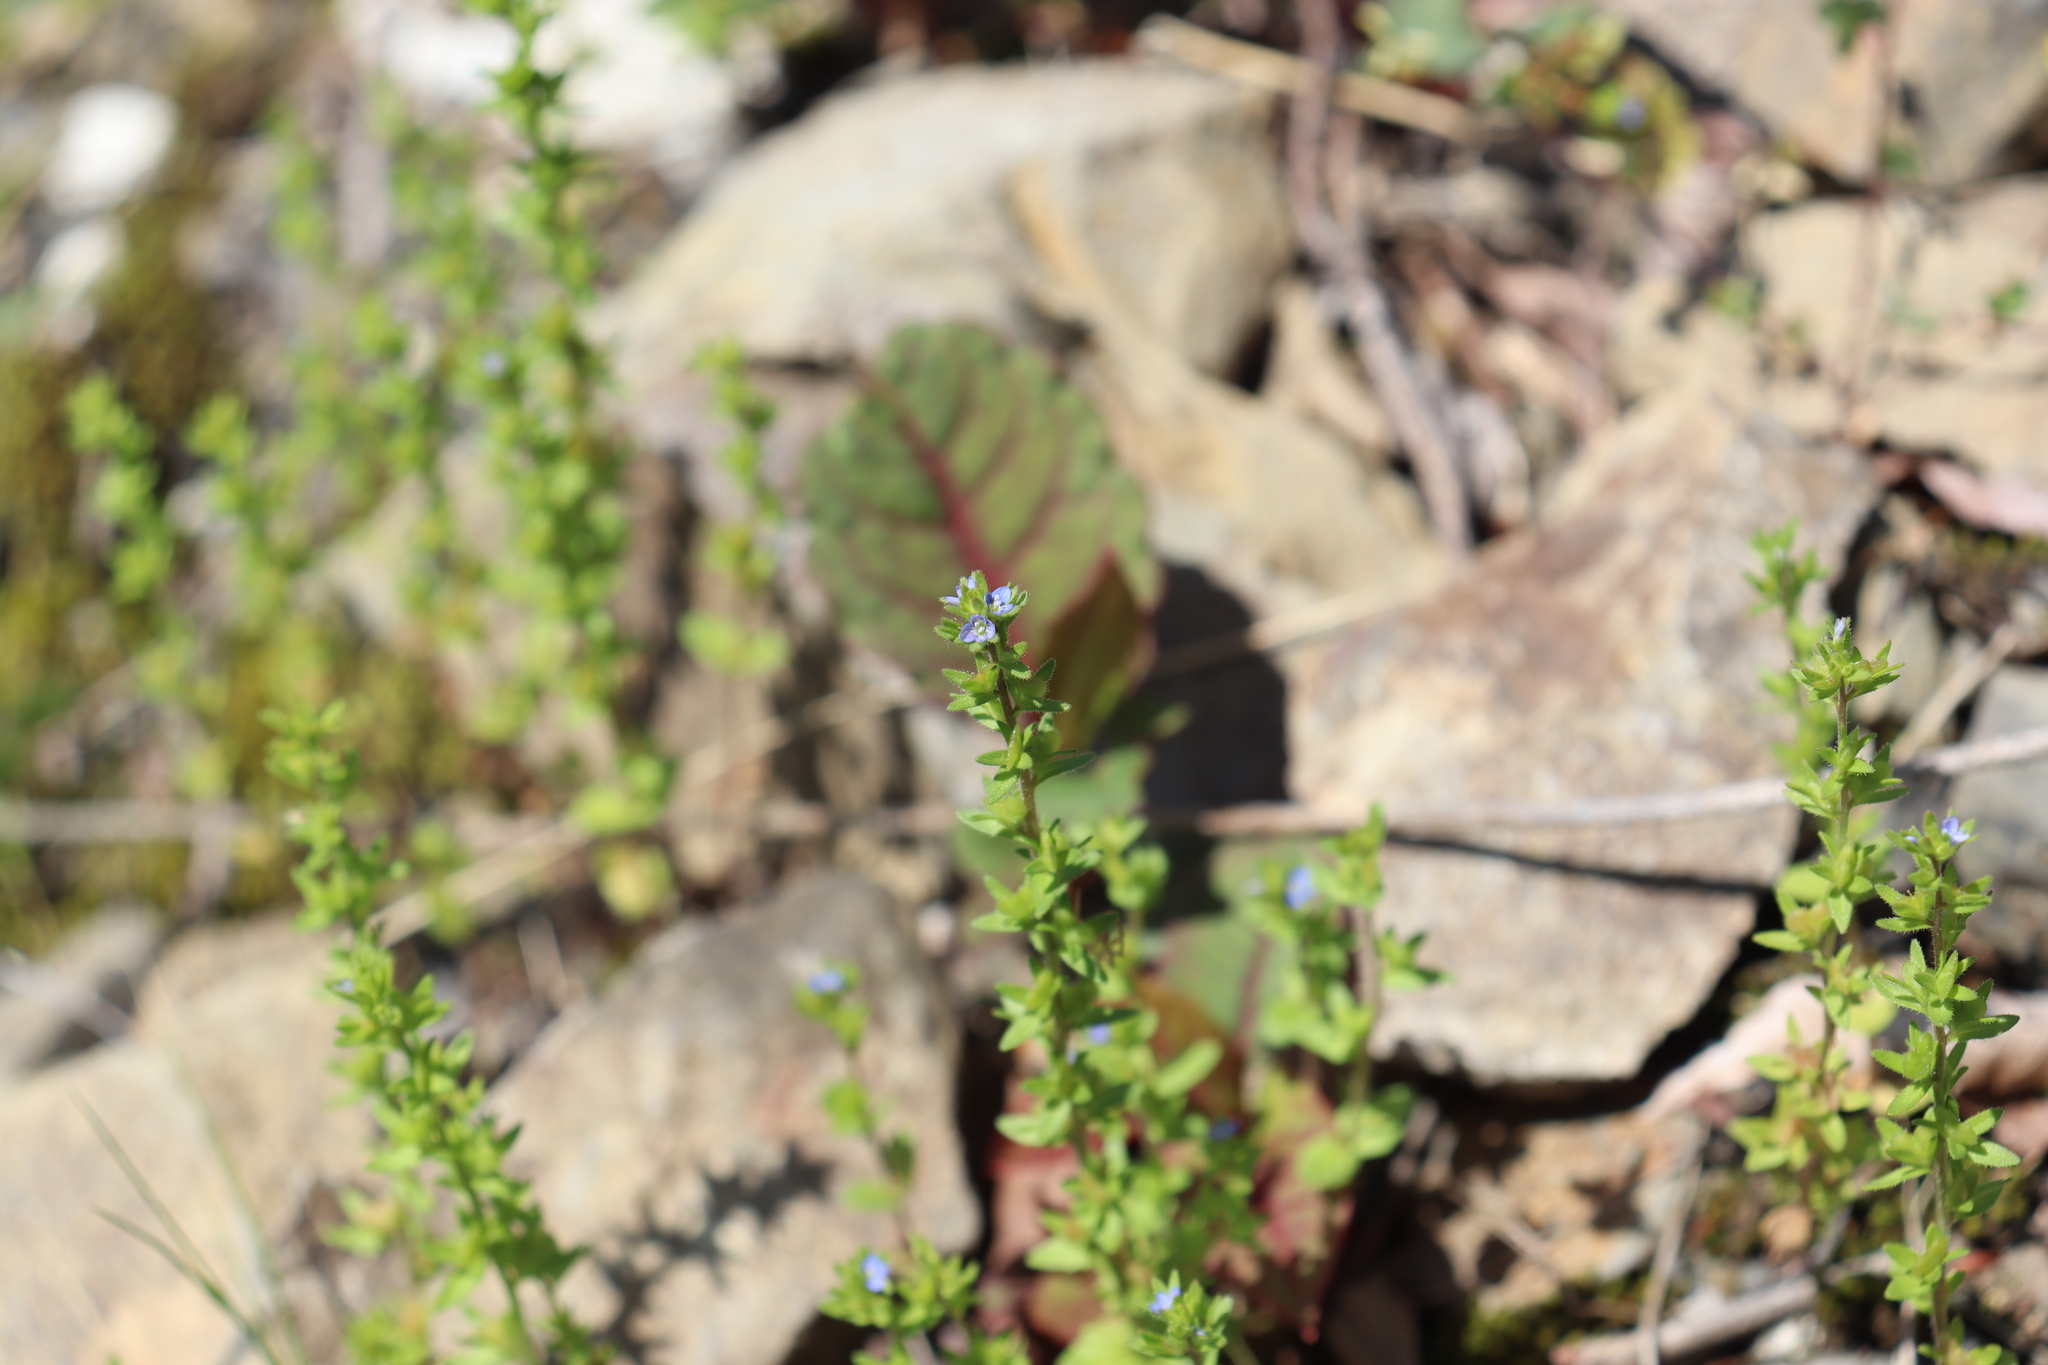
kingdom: Plantae
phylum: Tracheophyta
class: Magnoliopsida
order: Lamiales
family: Plantaginaceae
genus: Veronica
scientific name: Veronica arvensis
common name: Corn speedwell
